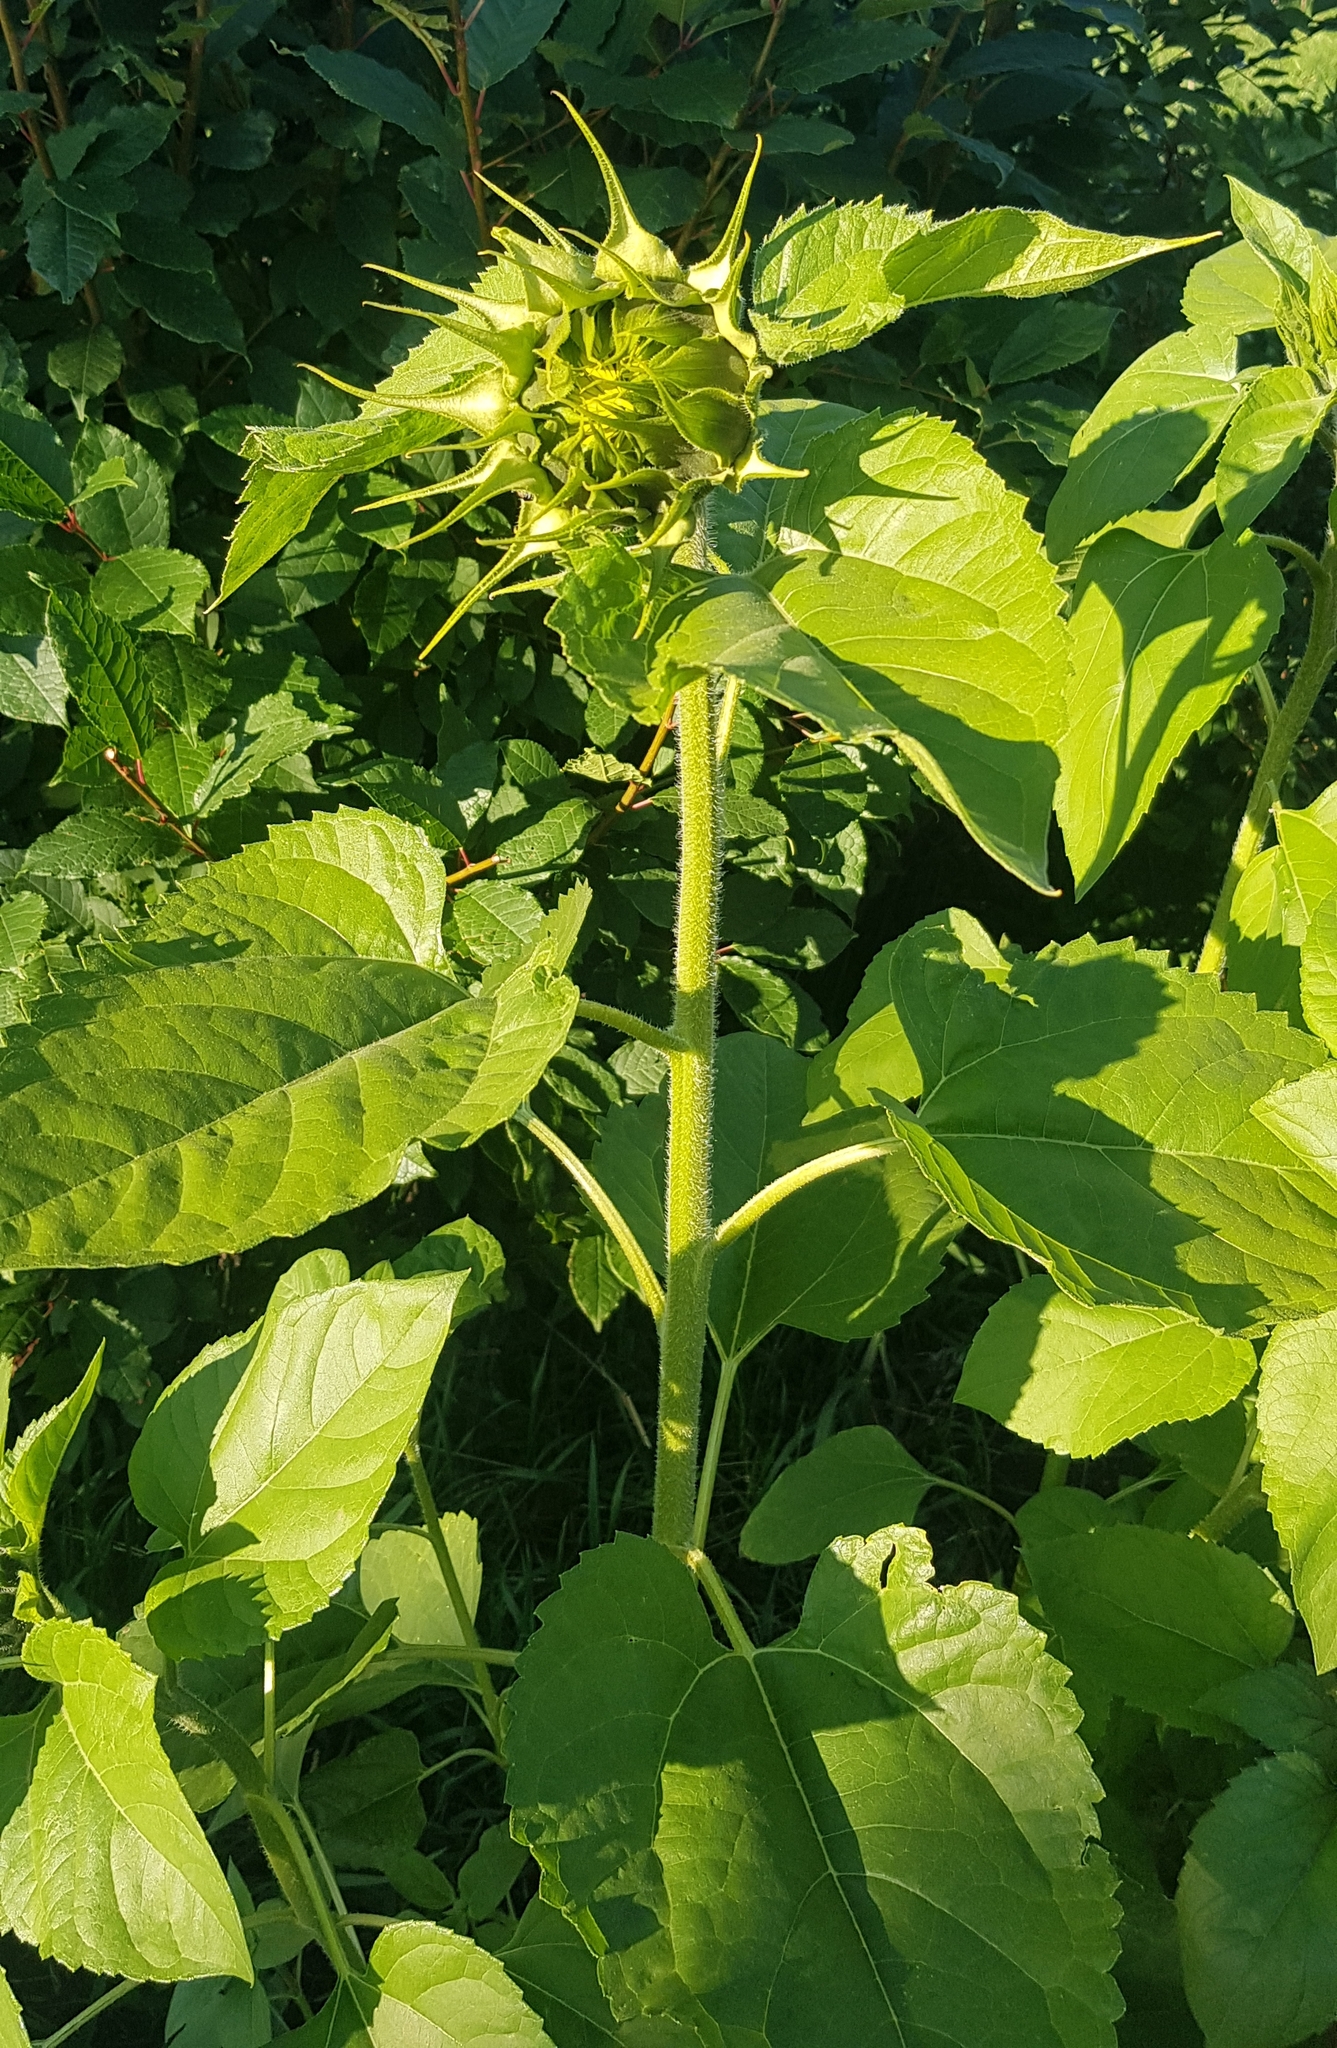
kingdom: Plantae
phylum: Tracheophyta
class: Magnoliopsida
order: Asterales
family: Asteraceae
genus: Helianthus
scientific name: Helianthus annuus
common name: Sunflower
